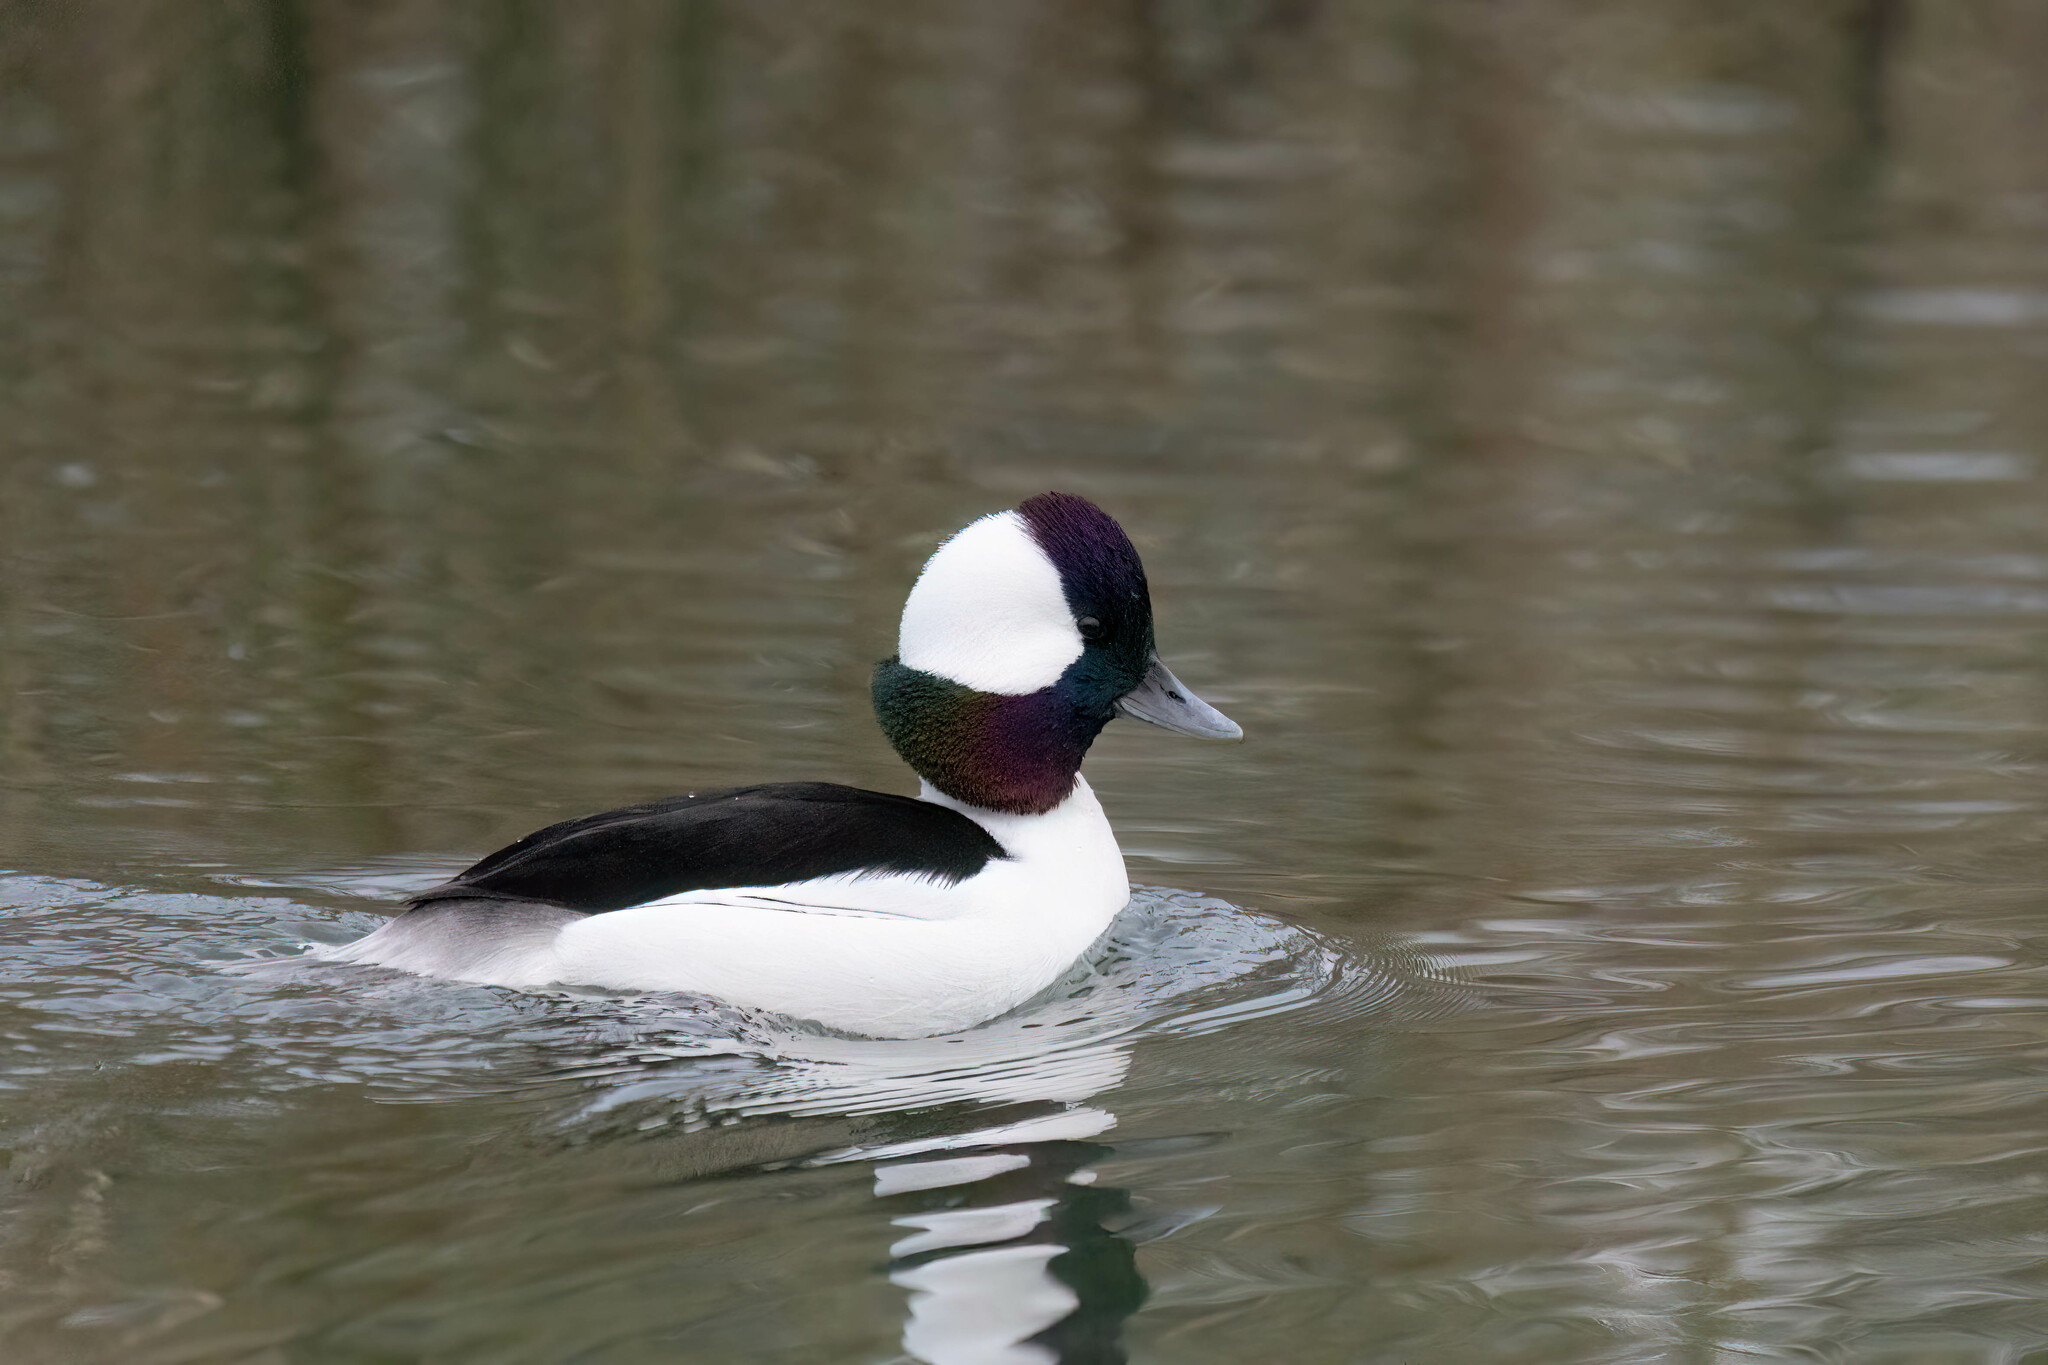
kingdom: Animalia
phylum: Chordata
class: Aves
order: Anseriformes
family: Anatidae
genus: Bucephala
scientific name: Bucephala albeola
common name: Bufflehead
